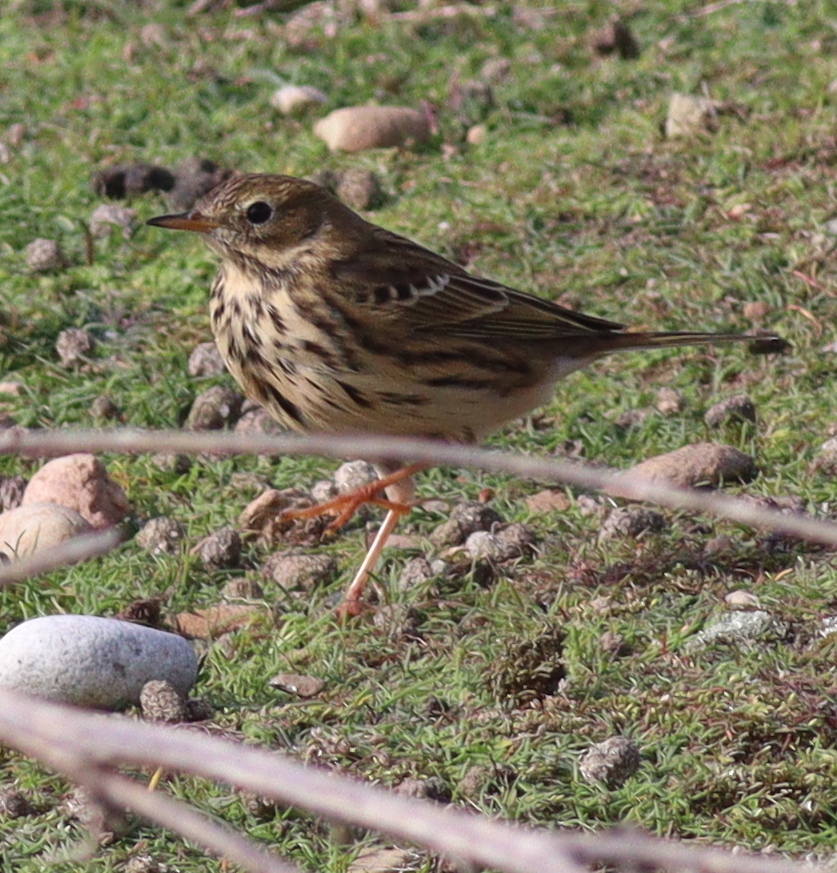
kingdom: Animalia
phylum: Chordata
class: Aves
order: Passeriformes
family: Motacillidae
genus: Anthus
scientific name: Anthus pratensis
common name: Meadow pipit
